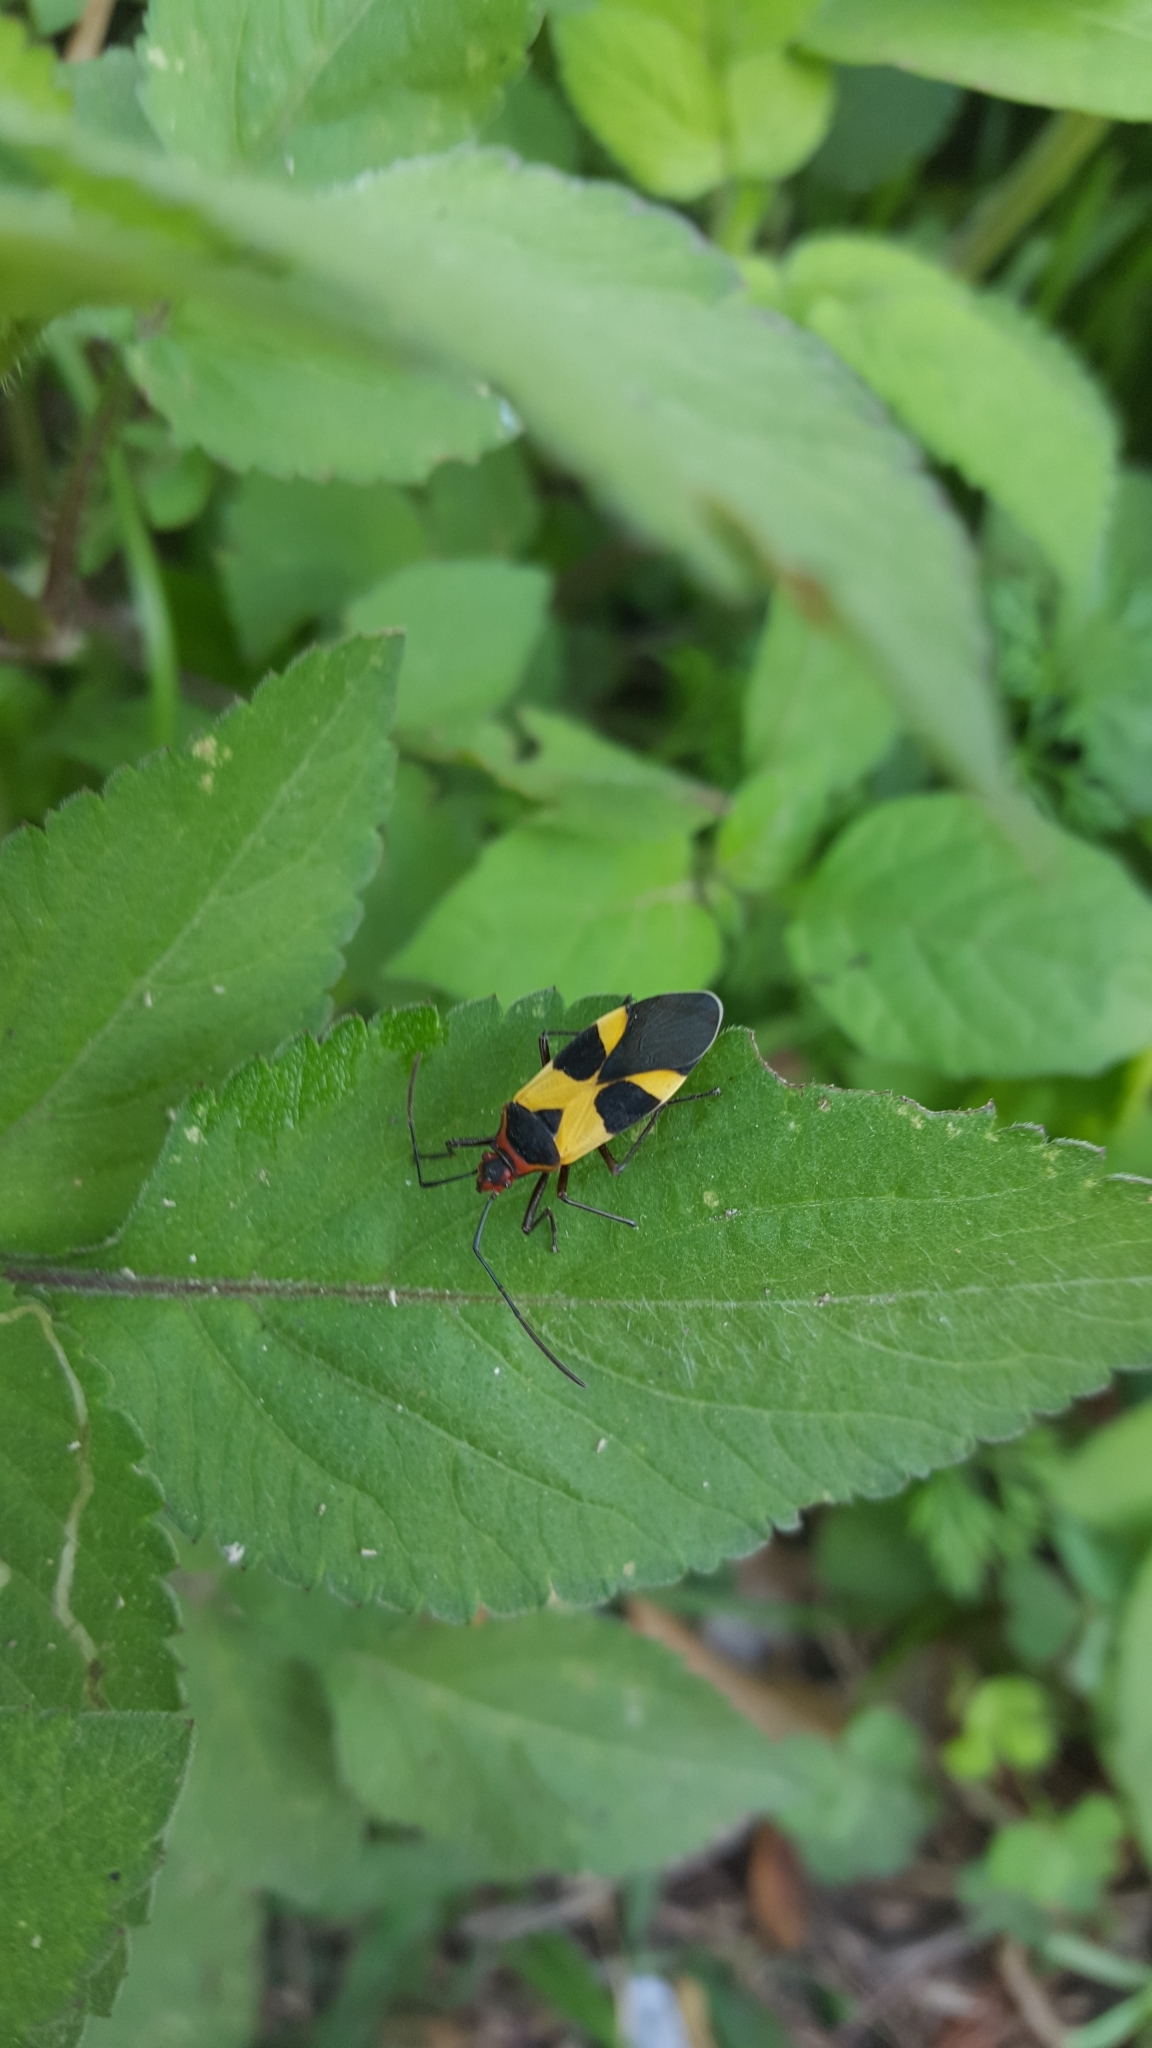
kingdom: Animalia
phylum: Arthropoda
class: Insecta
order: Hemiptera
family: Pyrrhocoridae
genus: Dysdercus
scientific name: Dysdercus lunulatus
